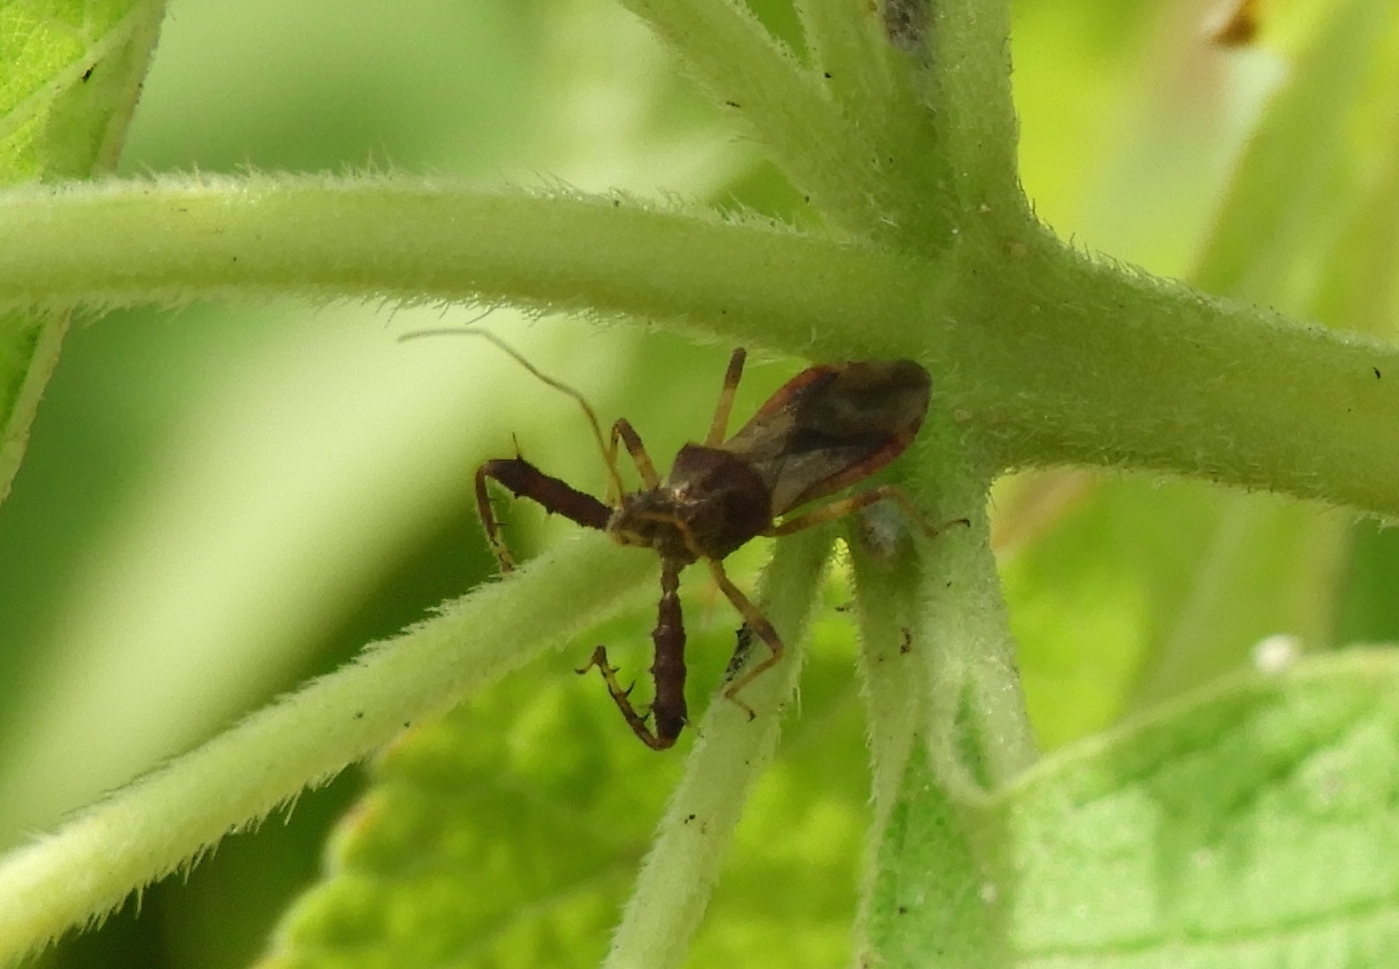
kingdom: Animalia
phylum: Arthropoda
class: Insecta
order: Hemiptera
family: Reduviidae
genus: Sinea
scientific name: Sinea
